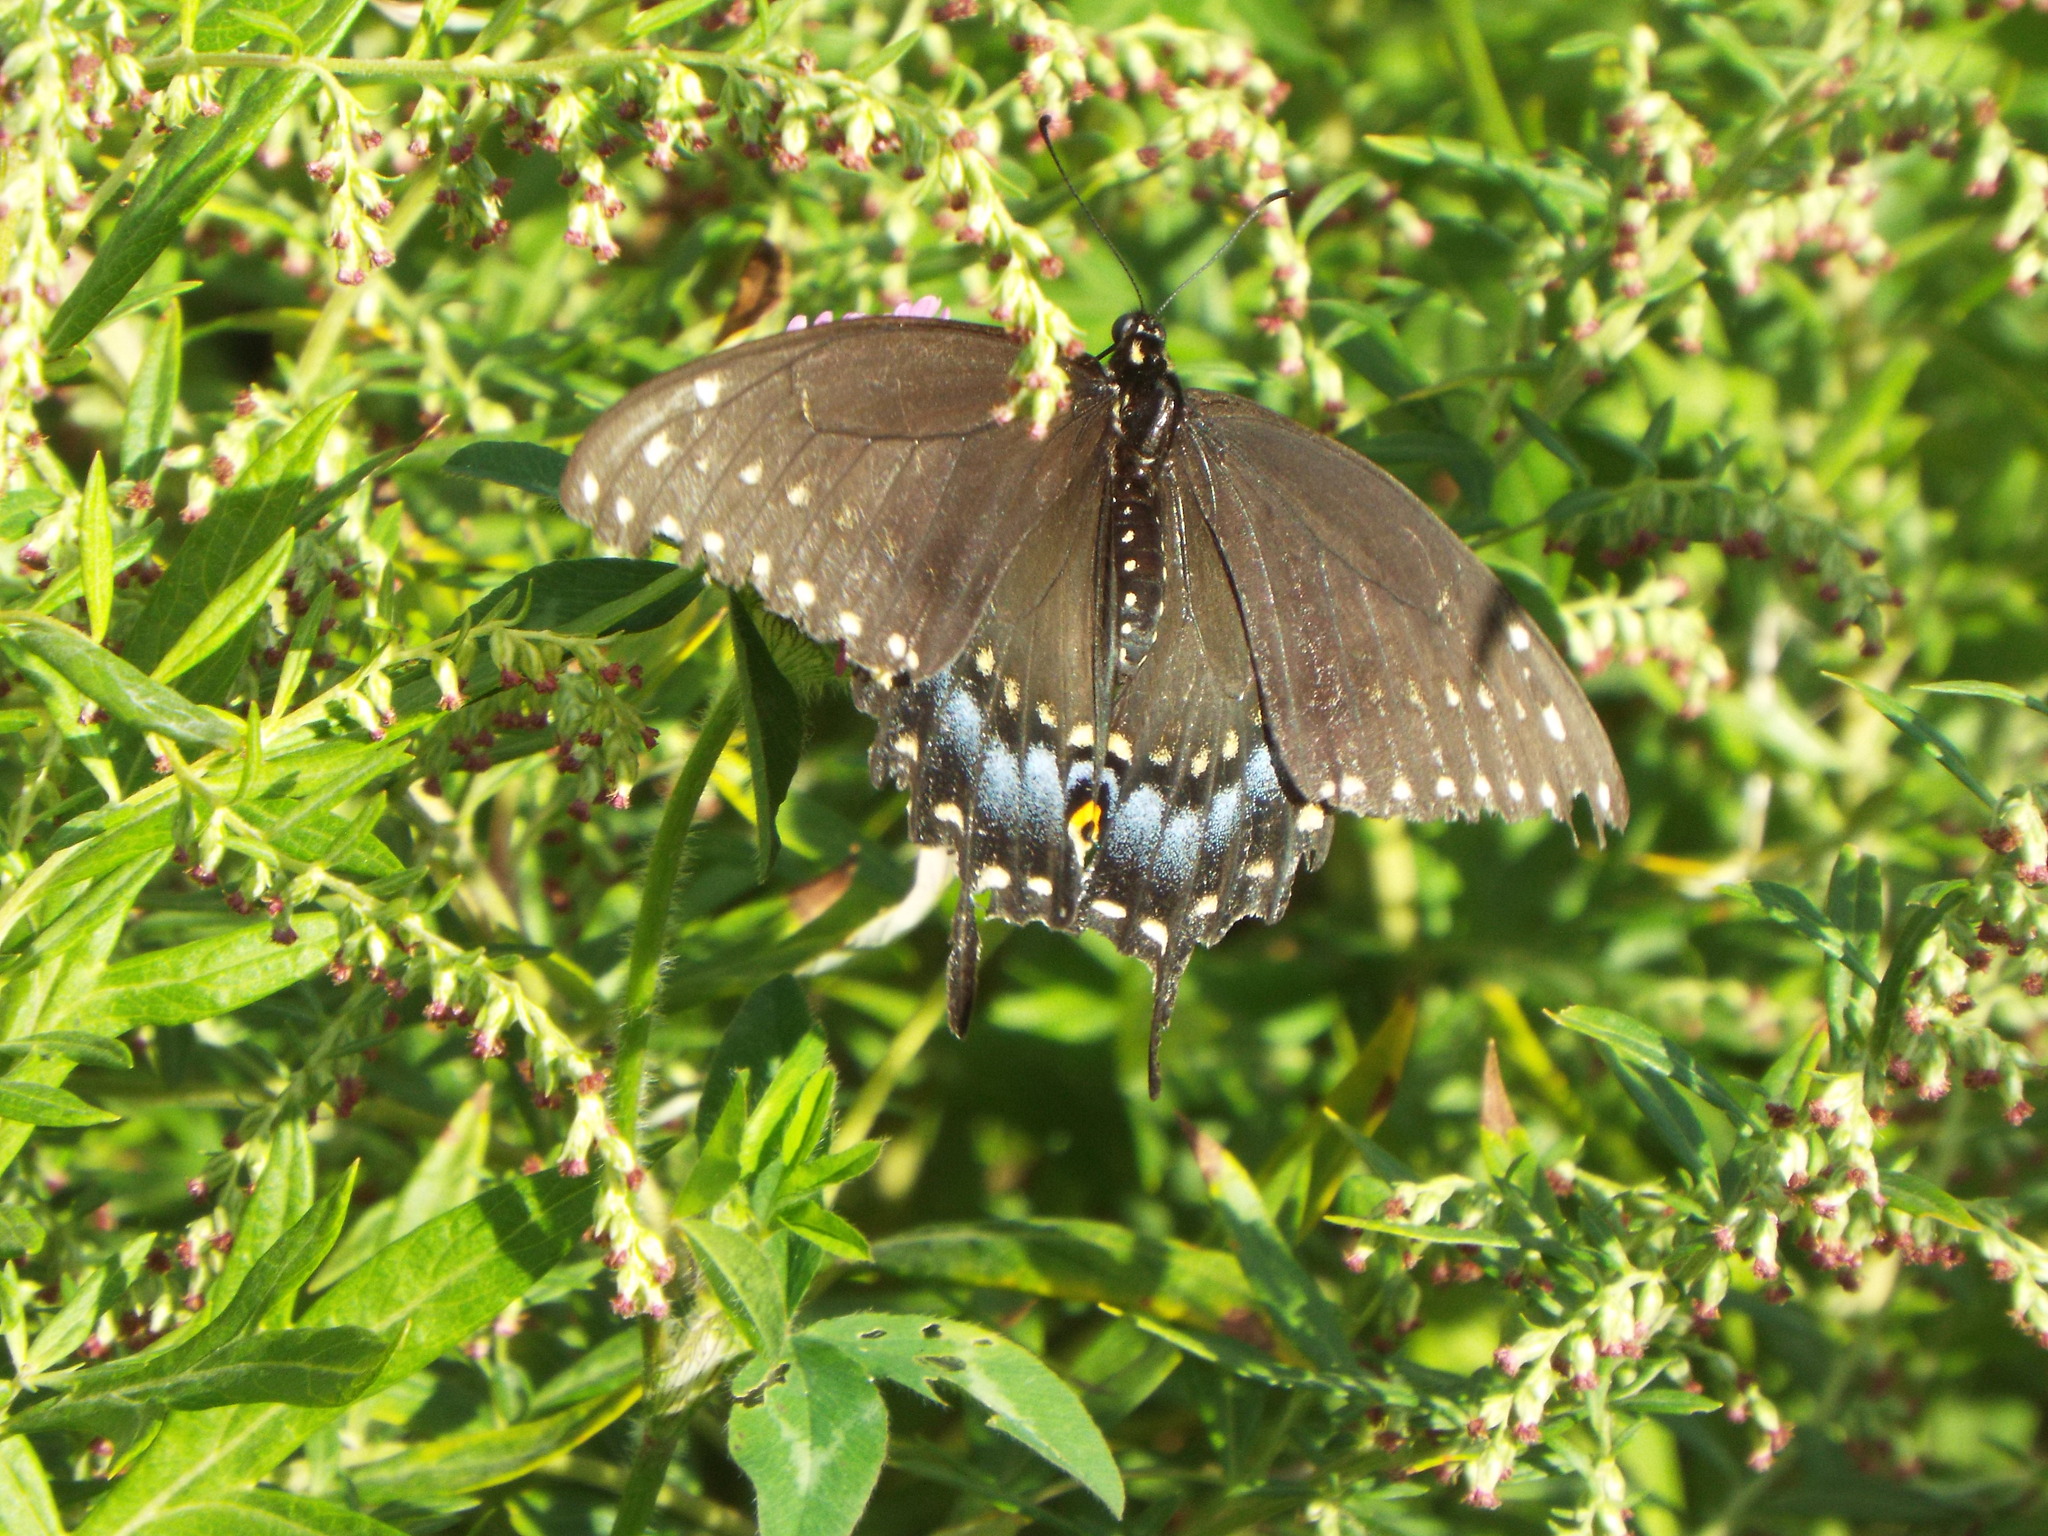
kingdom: Animalia
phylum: Arthropoda
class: Insecta
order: Lepidoptera
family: Papilionidae
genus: Papilio
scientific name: Papilio polyxenes
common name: Black swallowtail
